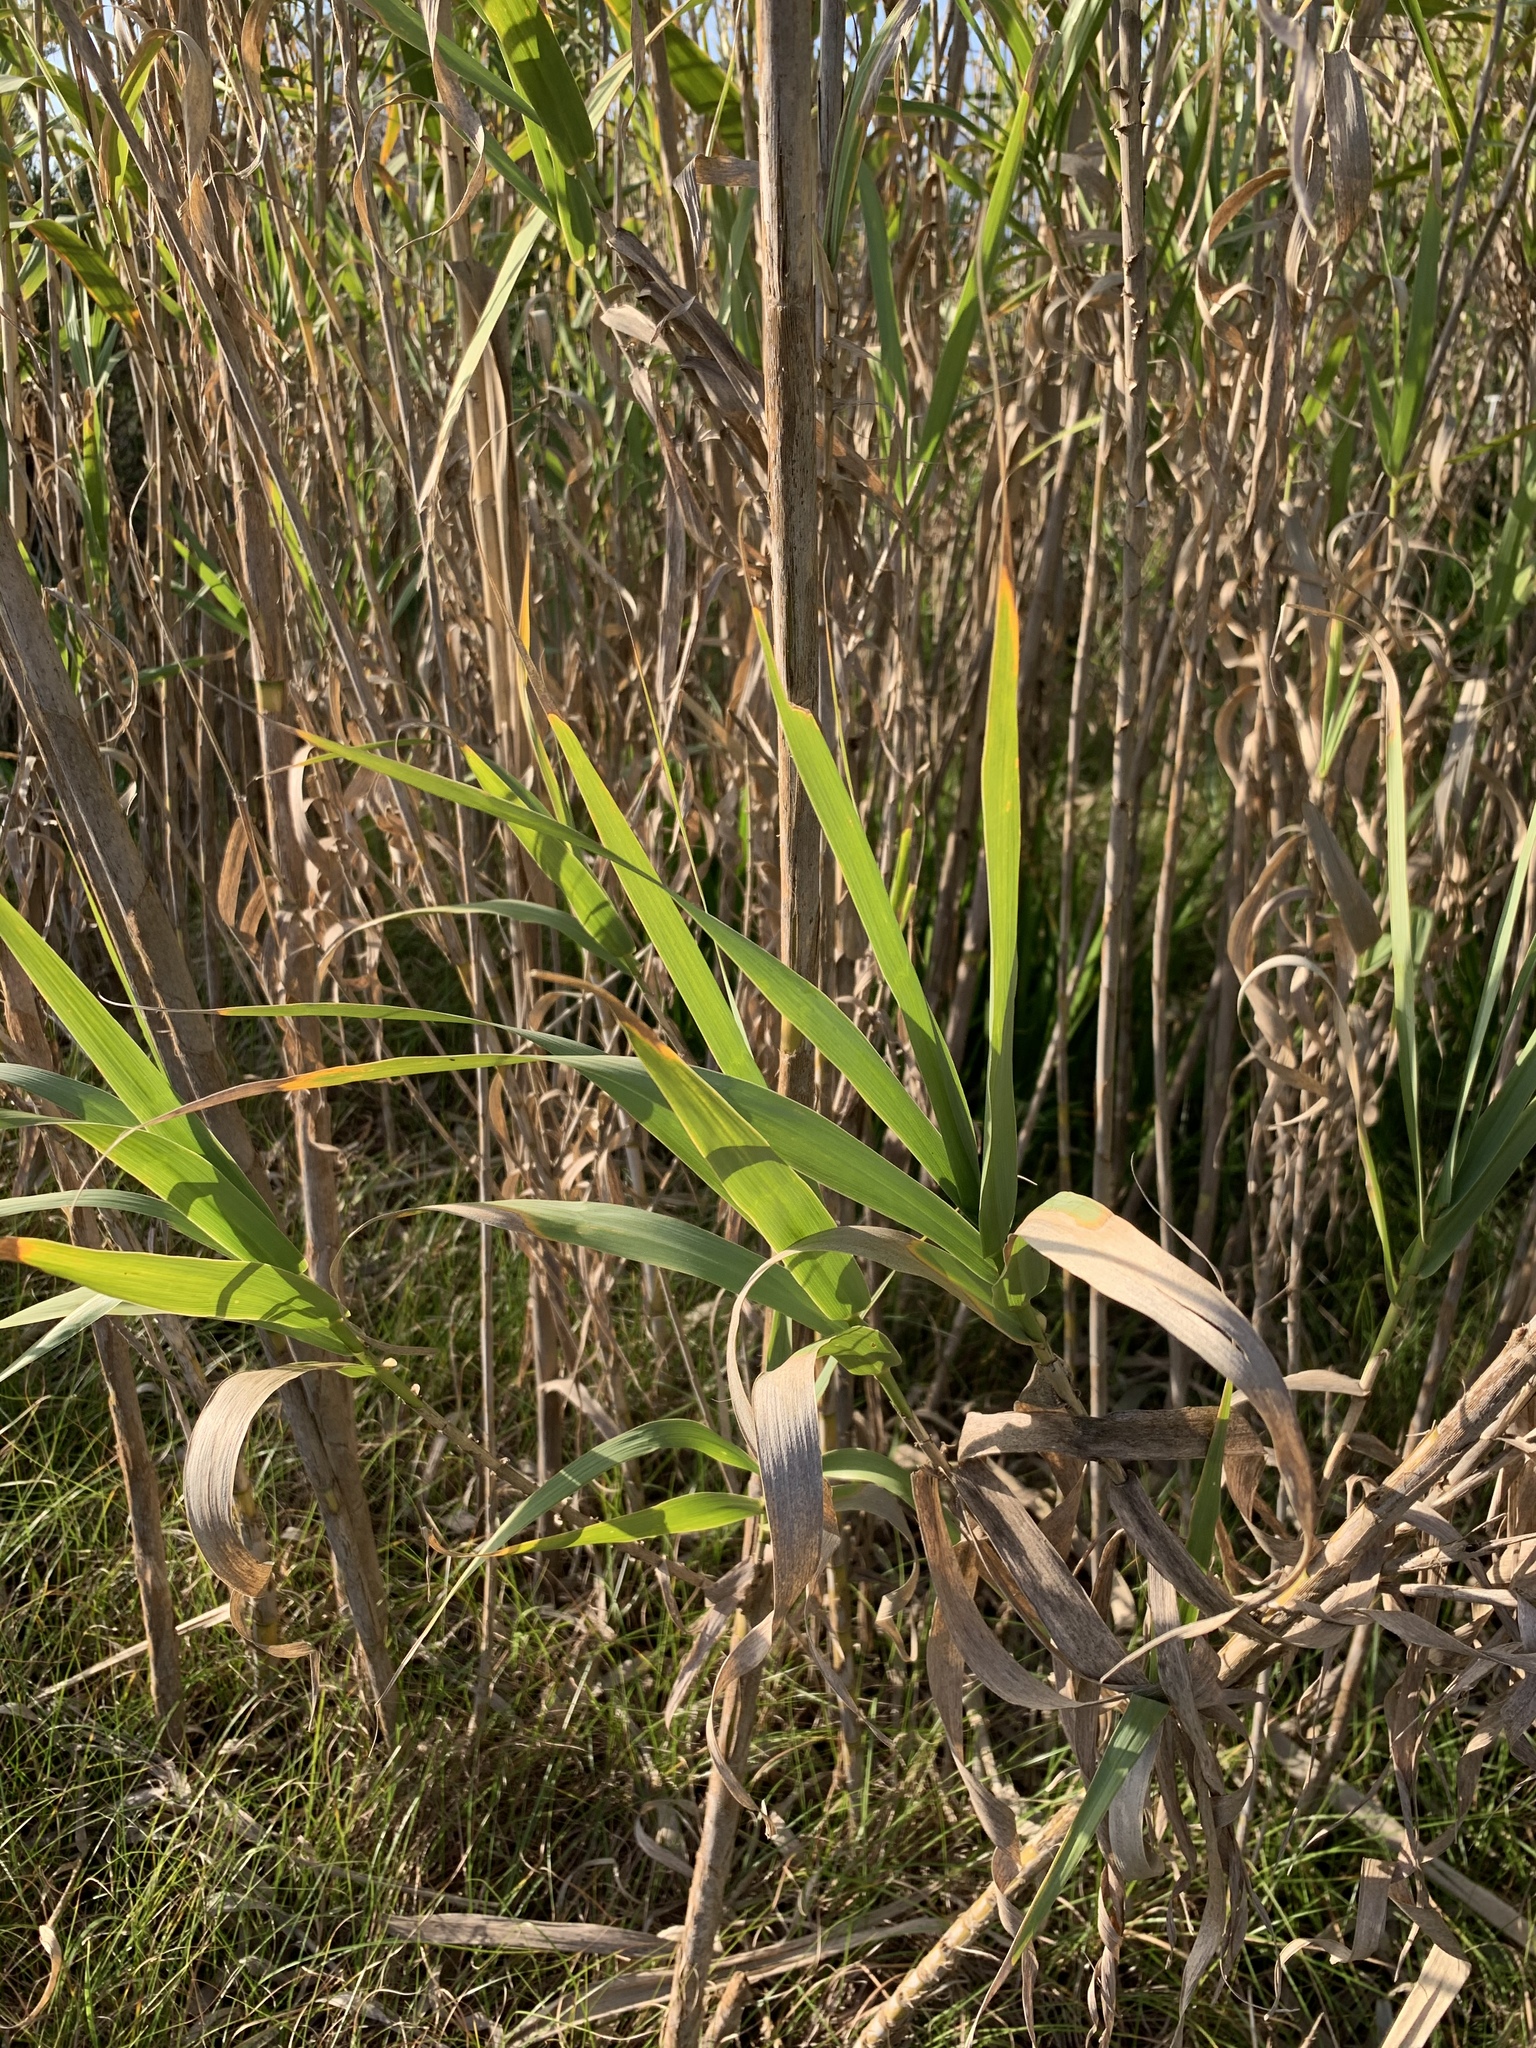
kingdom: Plantae
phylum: Tracheophyta
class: Liliopsida
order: Poales
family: Poaceae
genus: Arundo
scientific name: Arundo donax
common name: Giant reed
